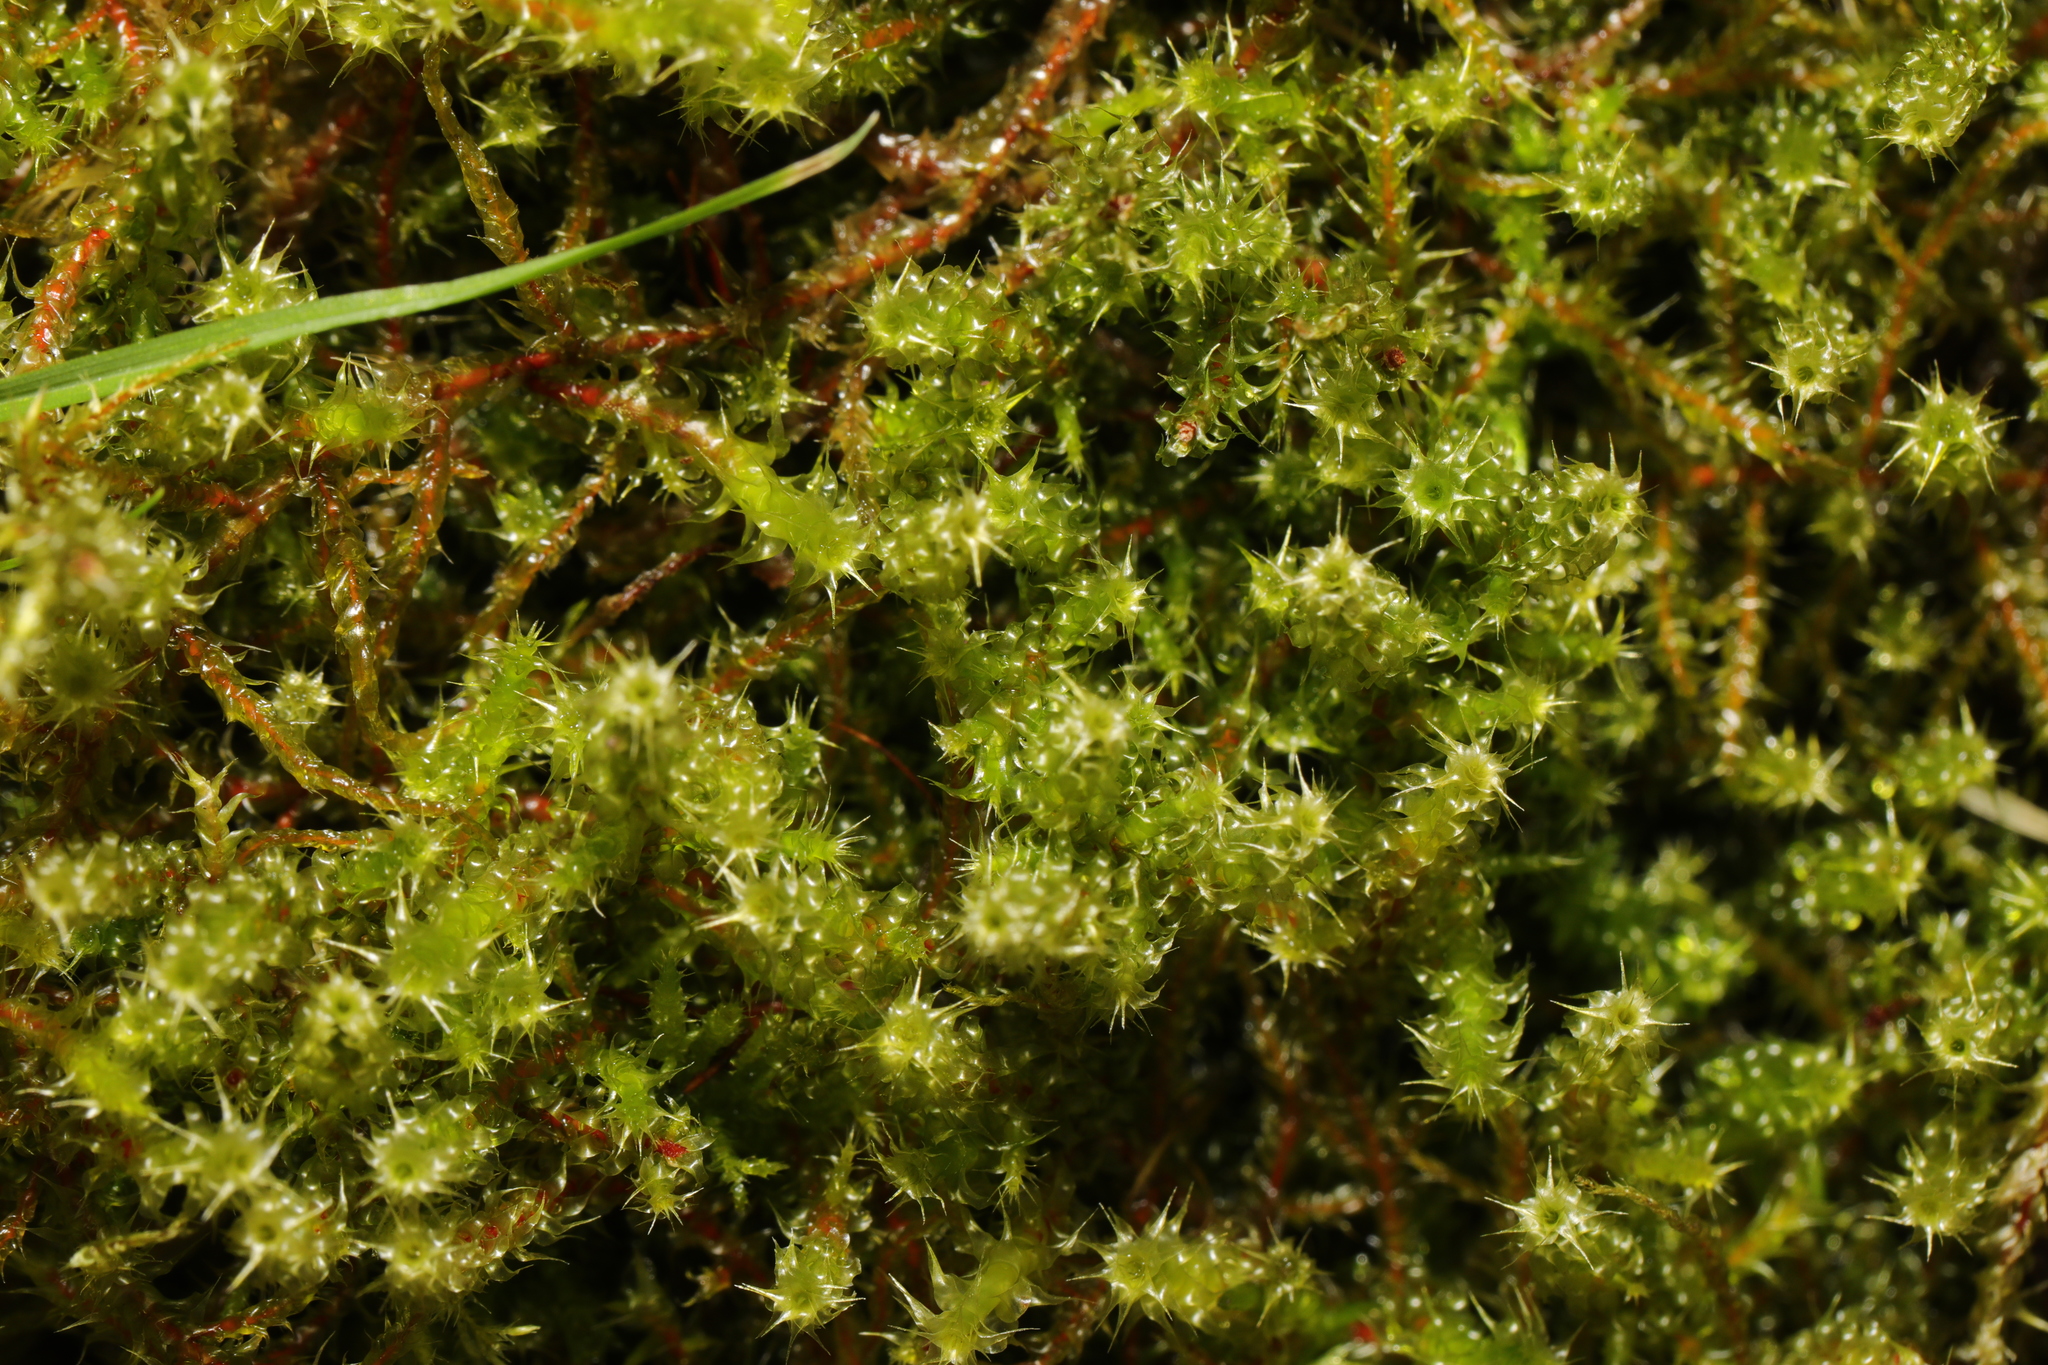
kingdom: Plantae
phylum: Bryophyta
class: Bryopsida
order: Hypnales
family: Hylocomiaceae
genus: Rhytidiadelphus
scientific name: Rhytidiadelphus squarrosus
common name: Springy turf-moss
